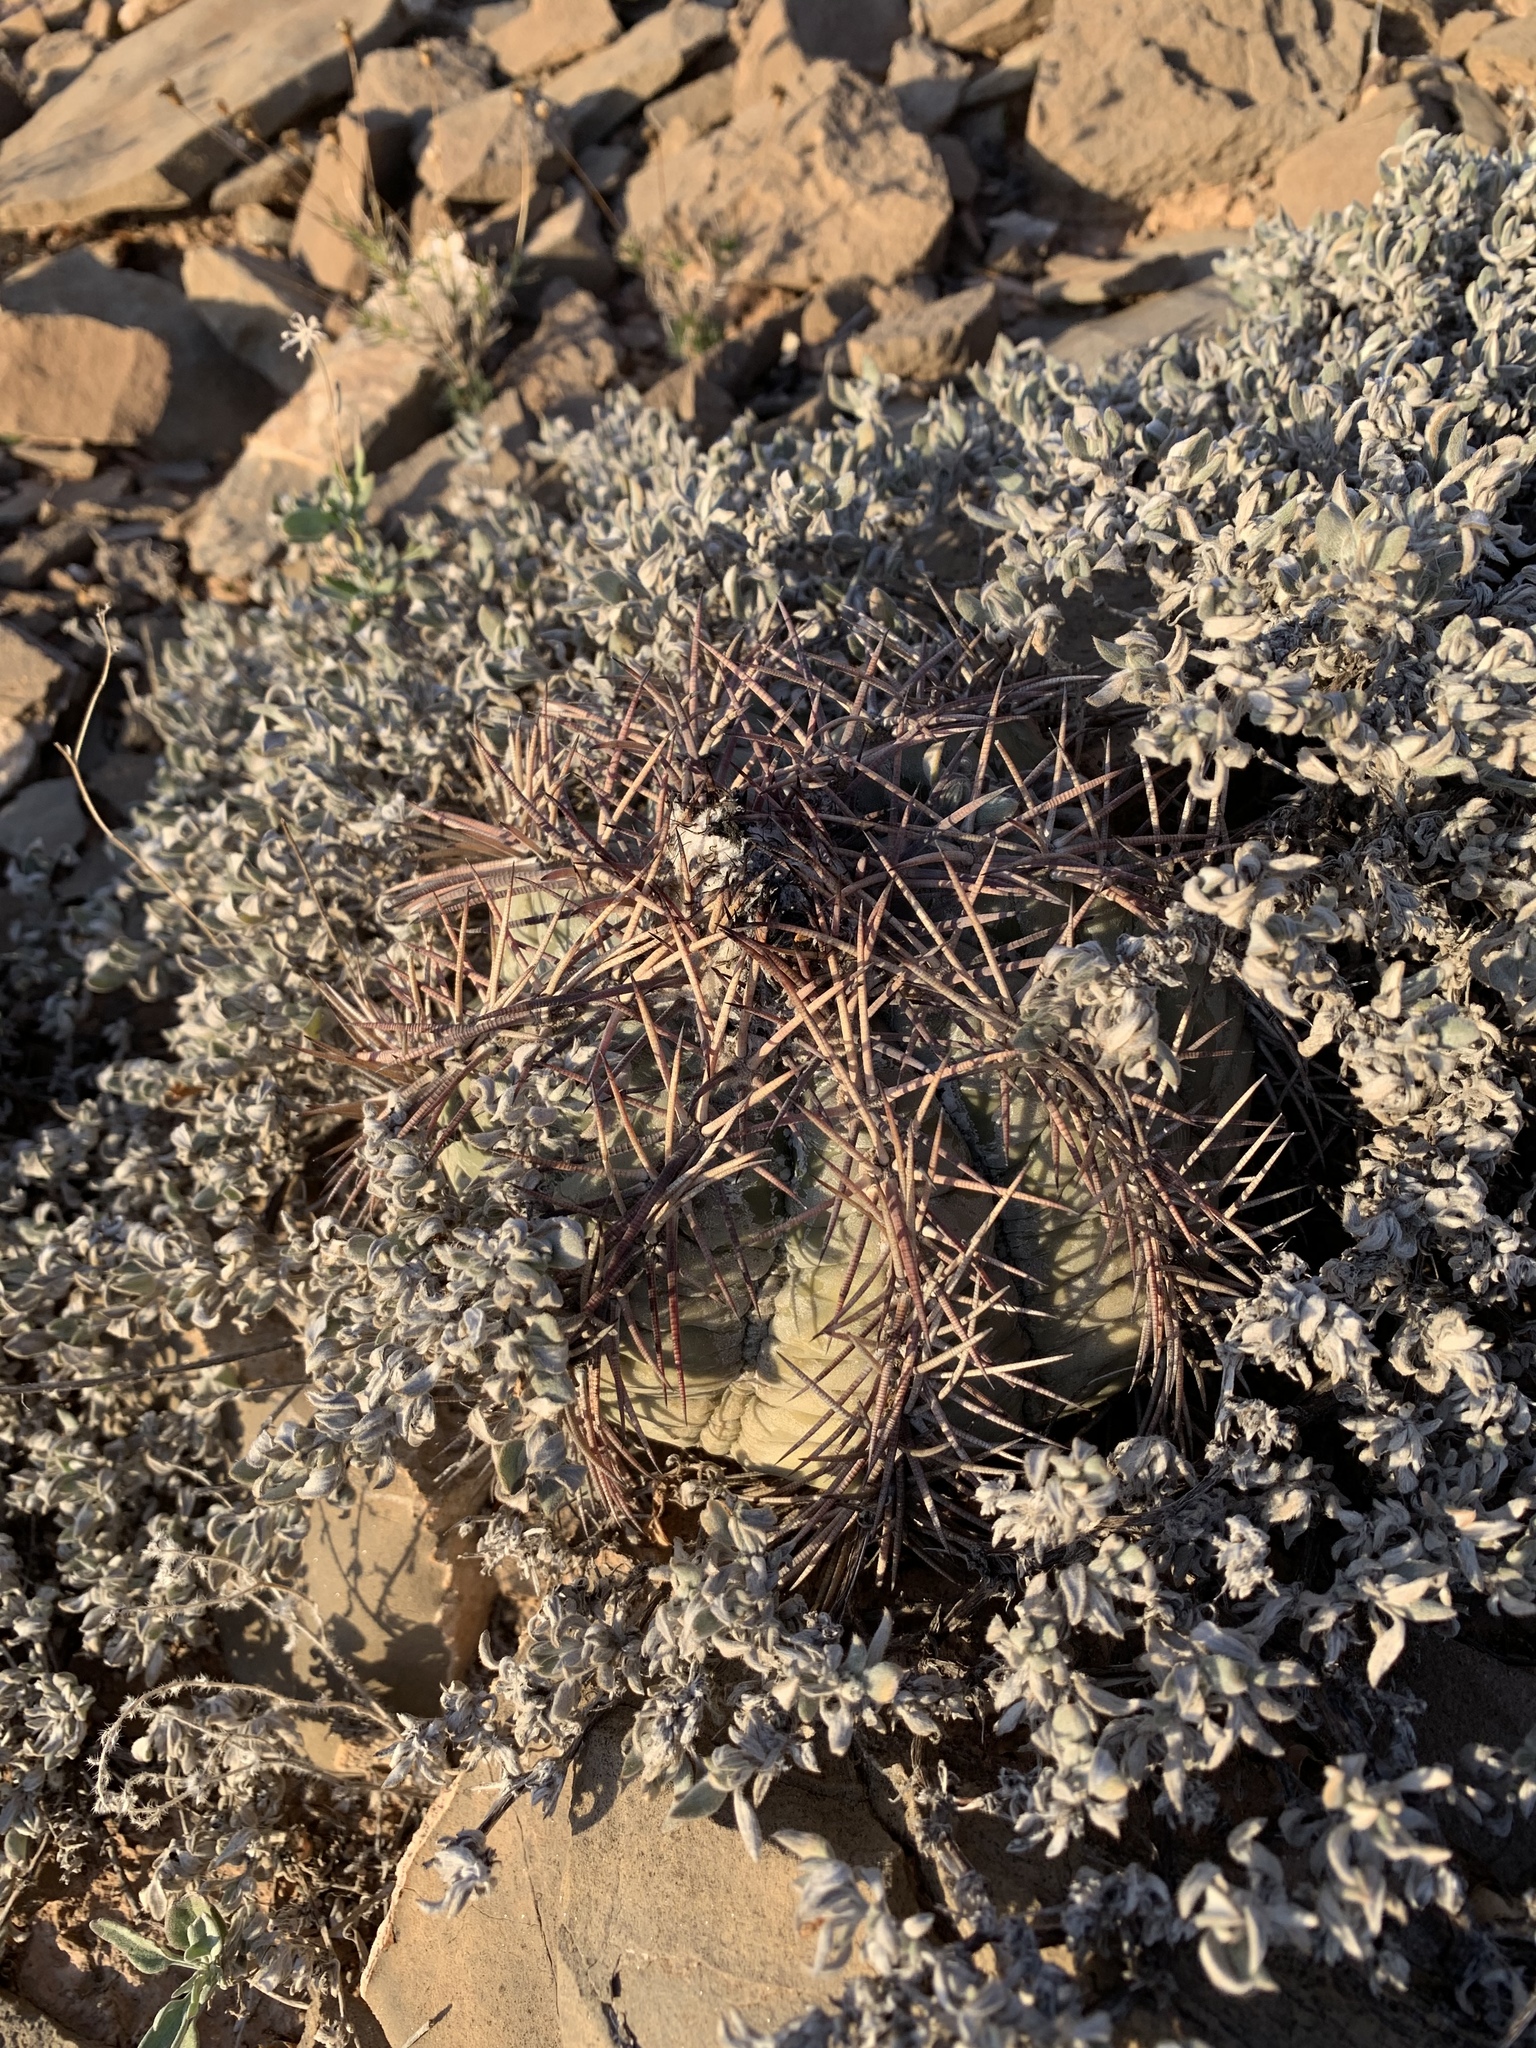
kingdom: Plantae
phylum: Tracheophyta
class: Magnoliopsida
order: Caryophyllales
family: Cactaceae
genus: Echinocactus
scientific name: Echinocactus horizonthalonius
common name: Devilshead
